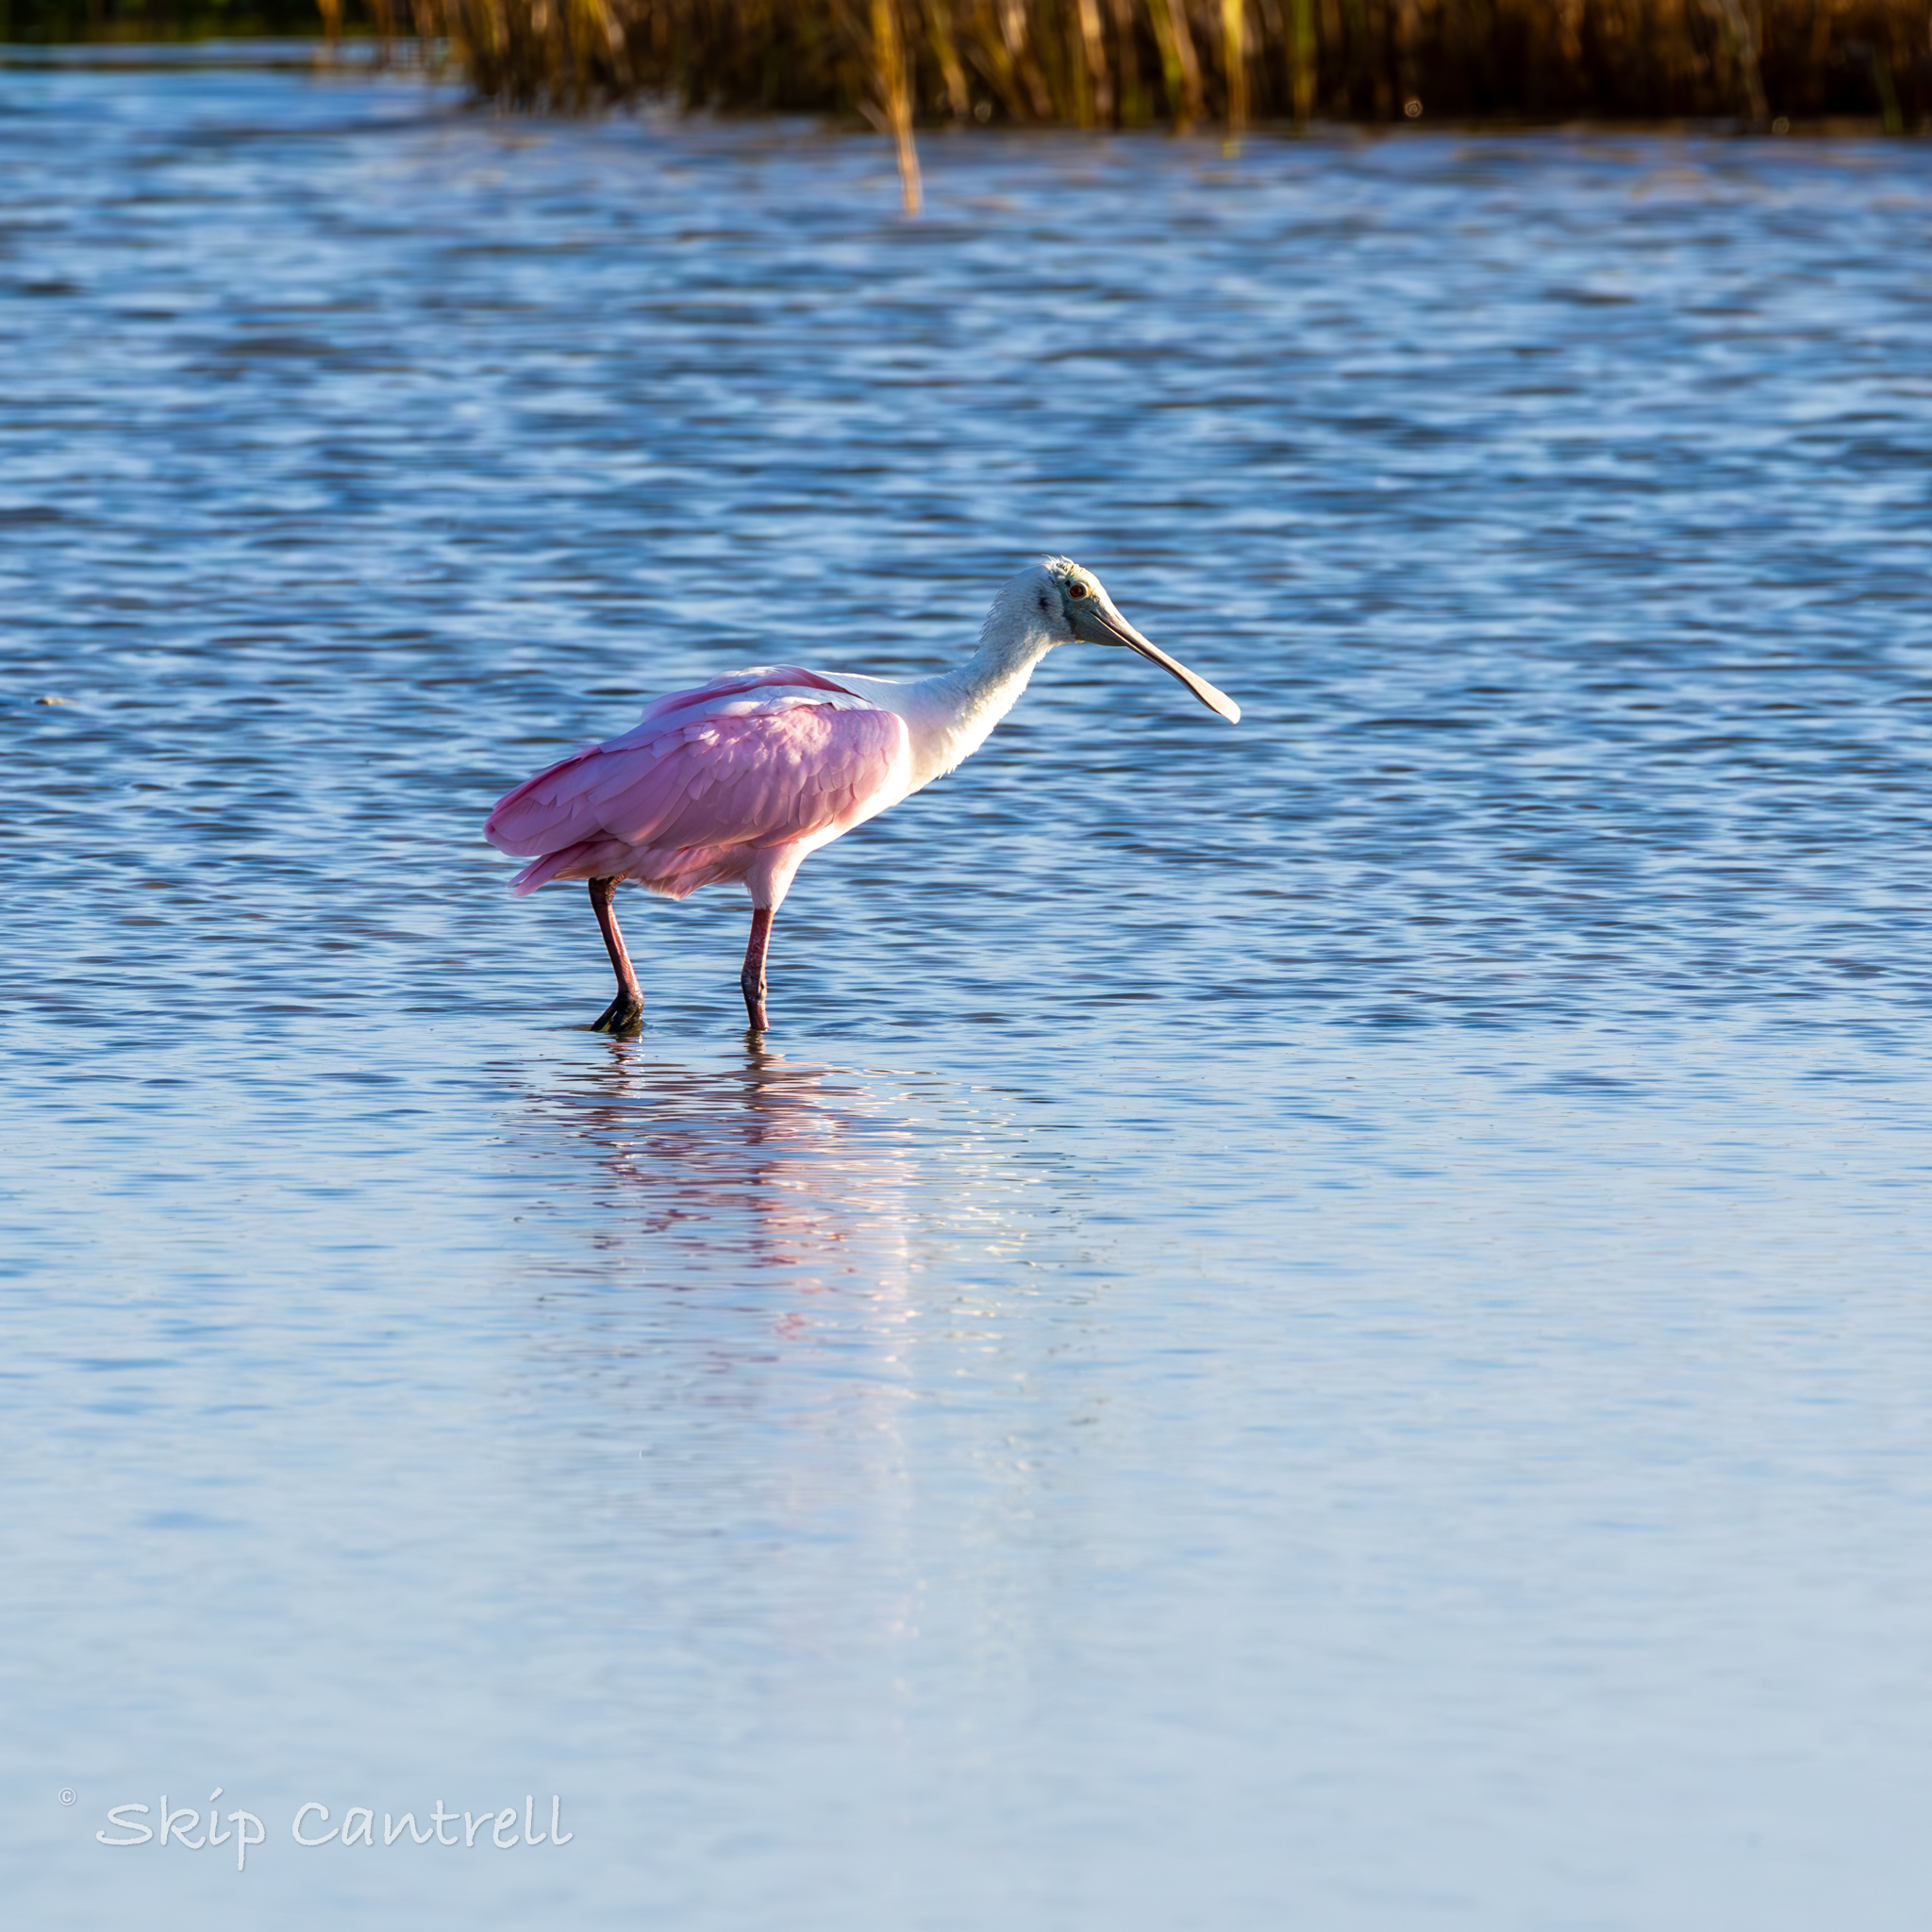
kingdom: Animalia
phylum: Chordata
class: Aves
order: Pelecaniformes
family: Threskiornithidae
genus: Platalea
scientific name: Platalea ajaja
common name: Roseate spoonbill
